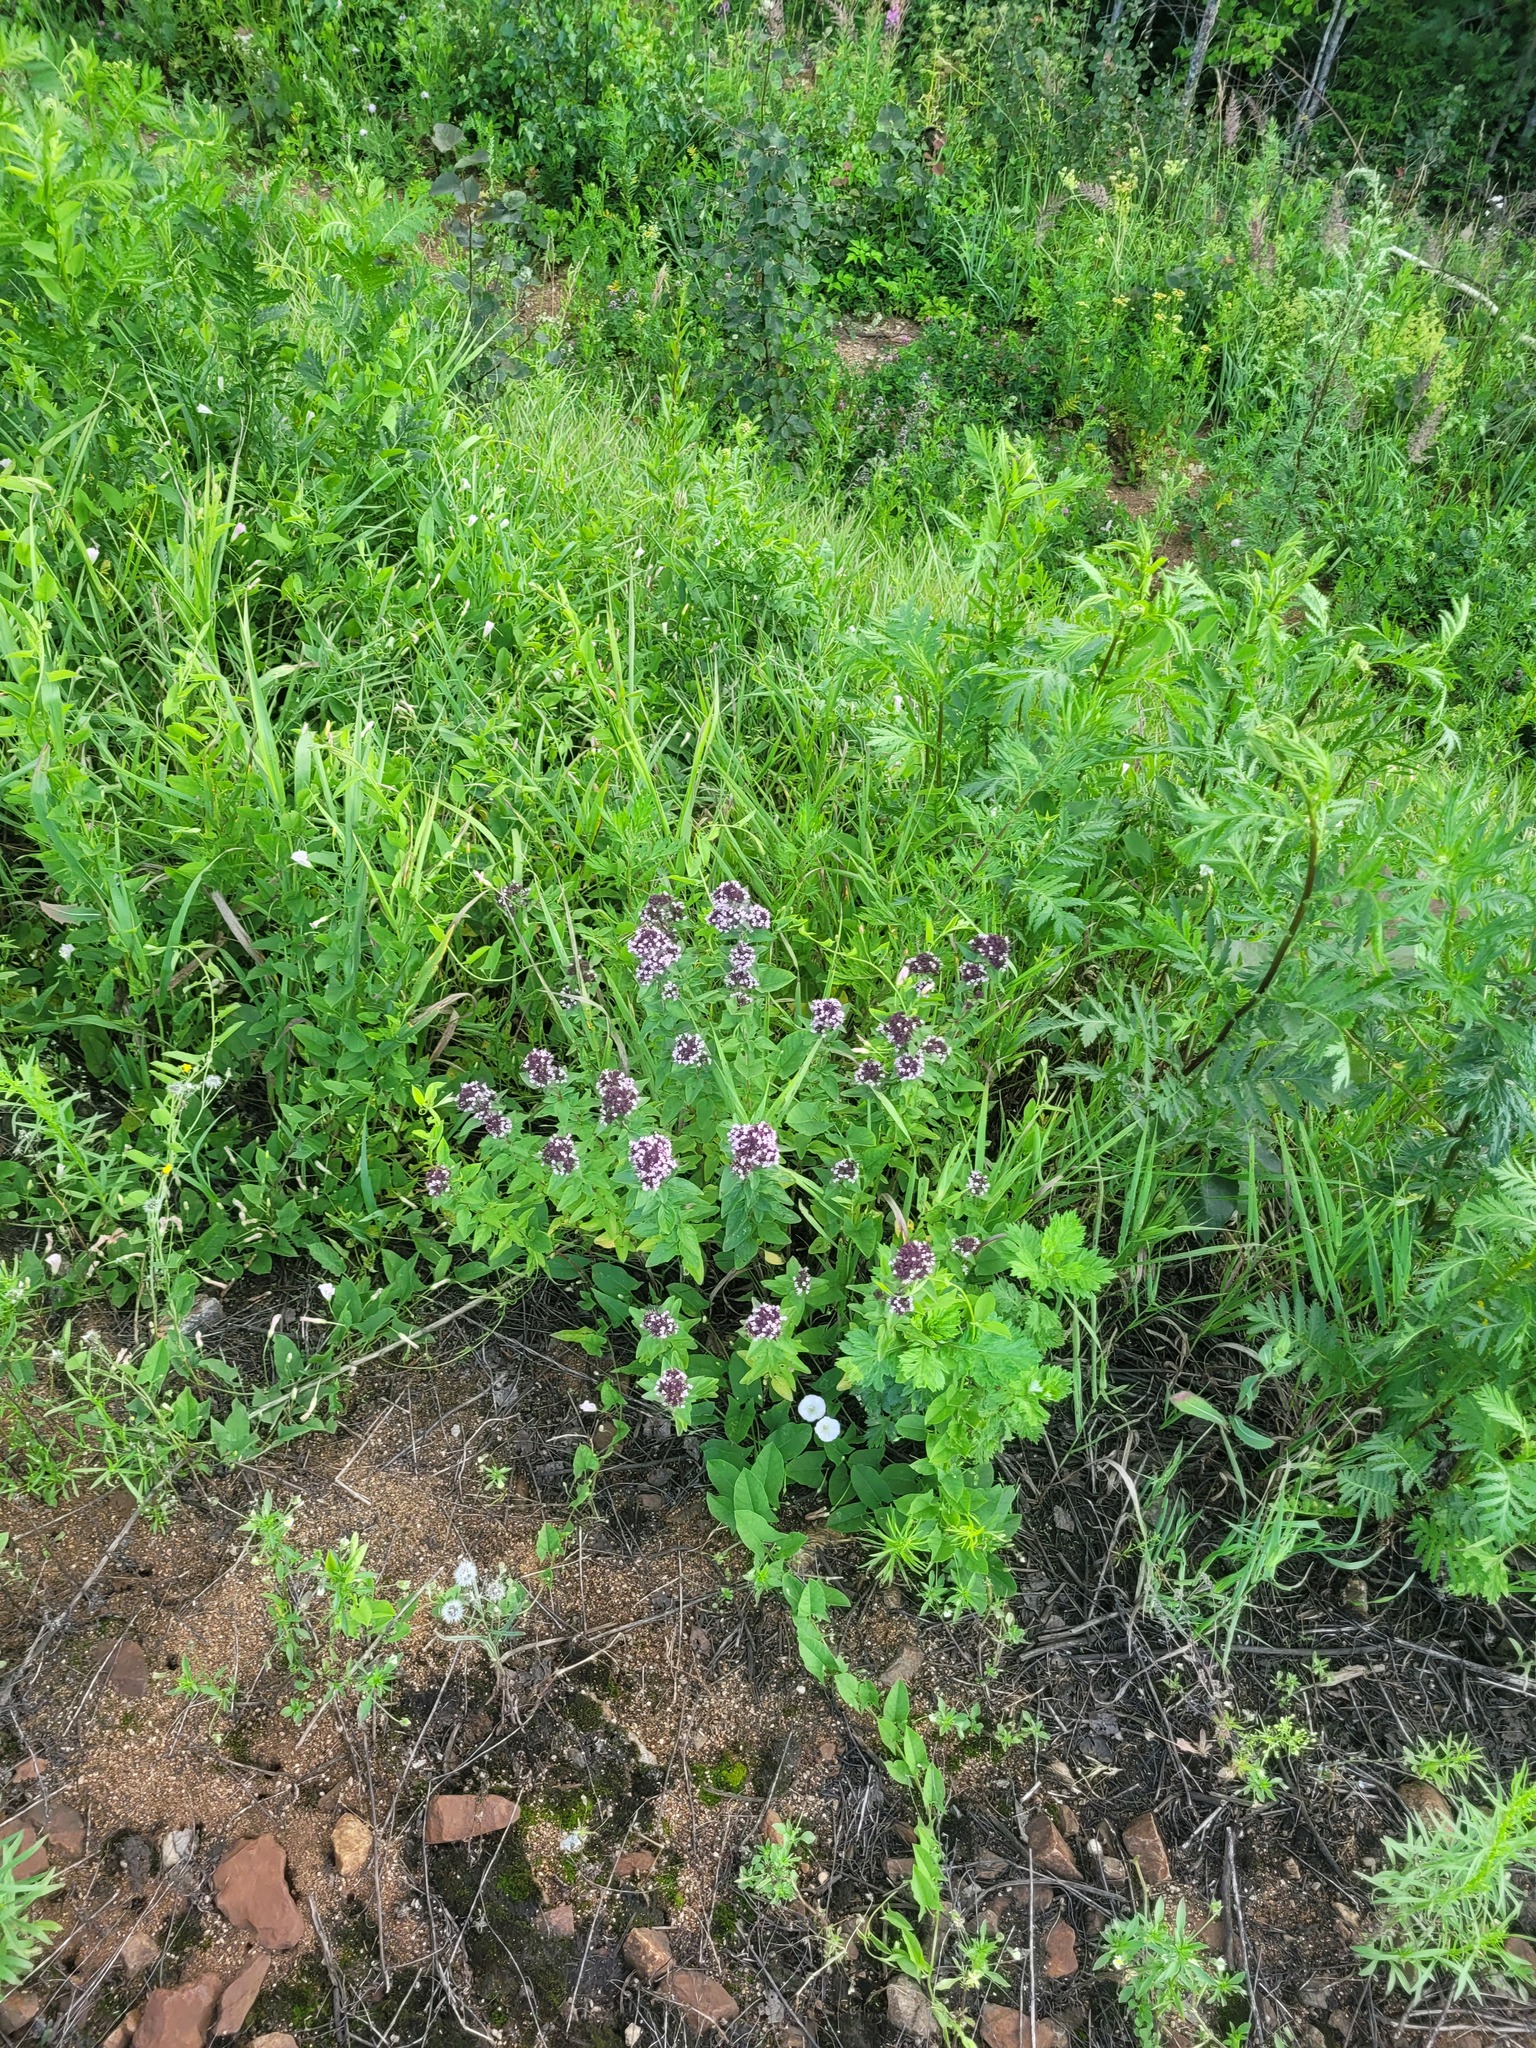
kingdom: Plantae
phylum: Tracheophyta
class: Magnoliopsida
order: Lamiales
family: Lamiaceae
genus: Origanum
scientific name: Origanum vulgare
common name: Wild marjoram
